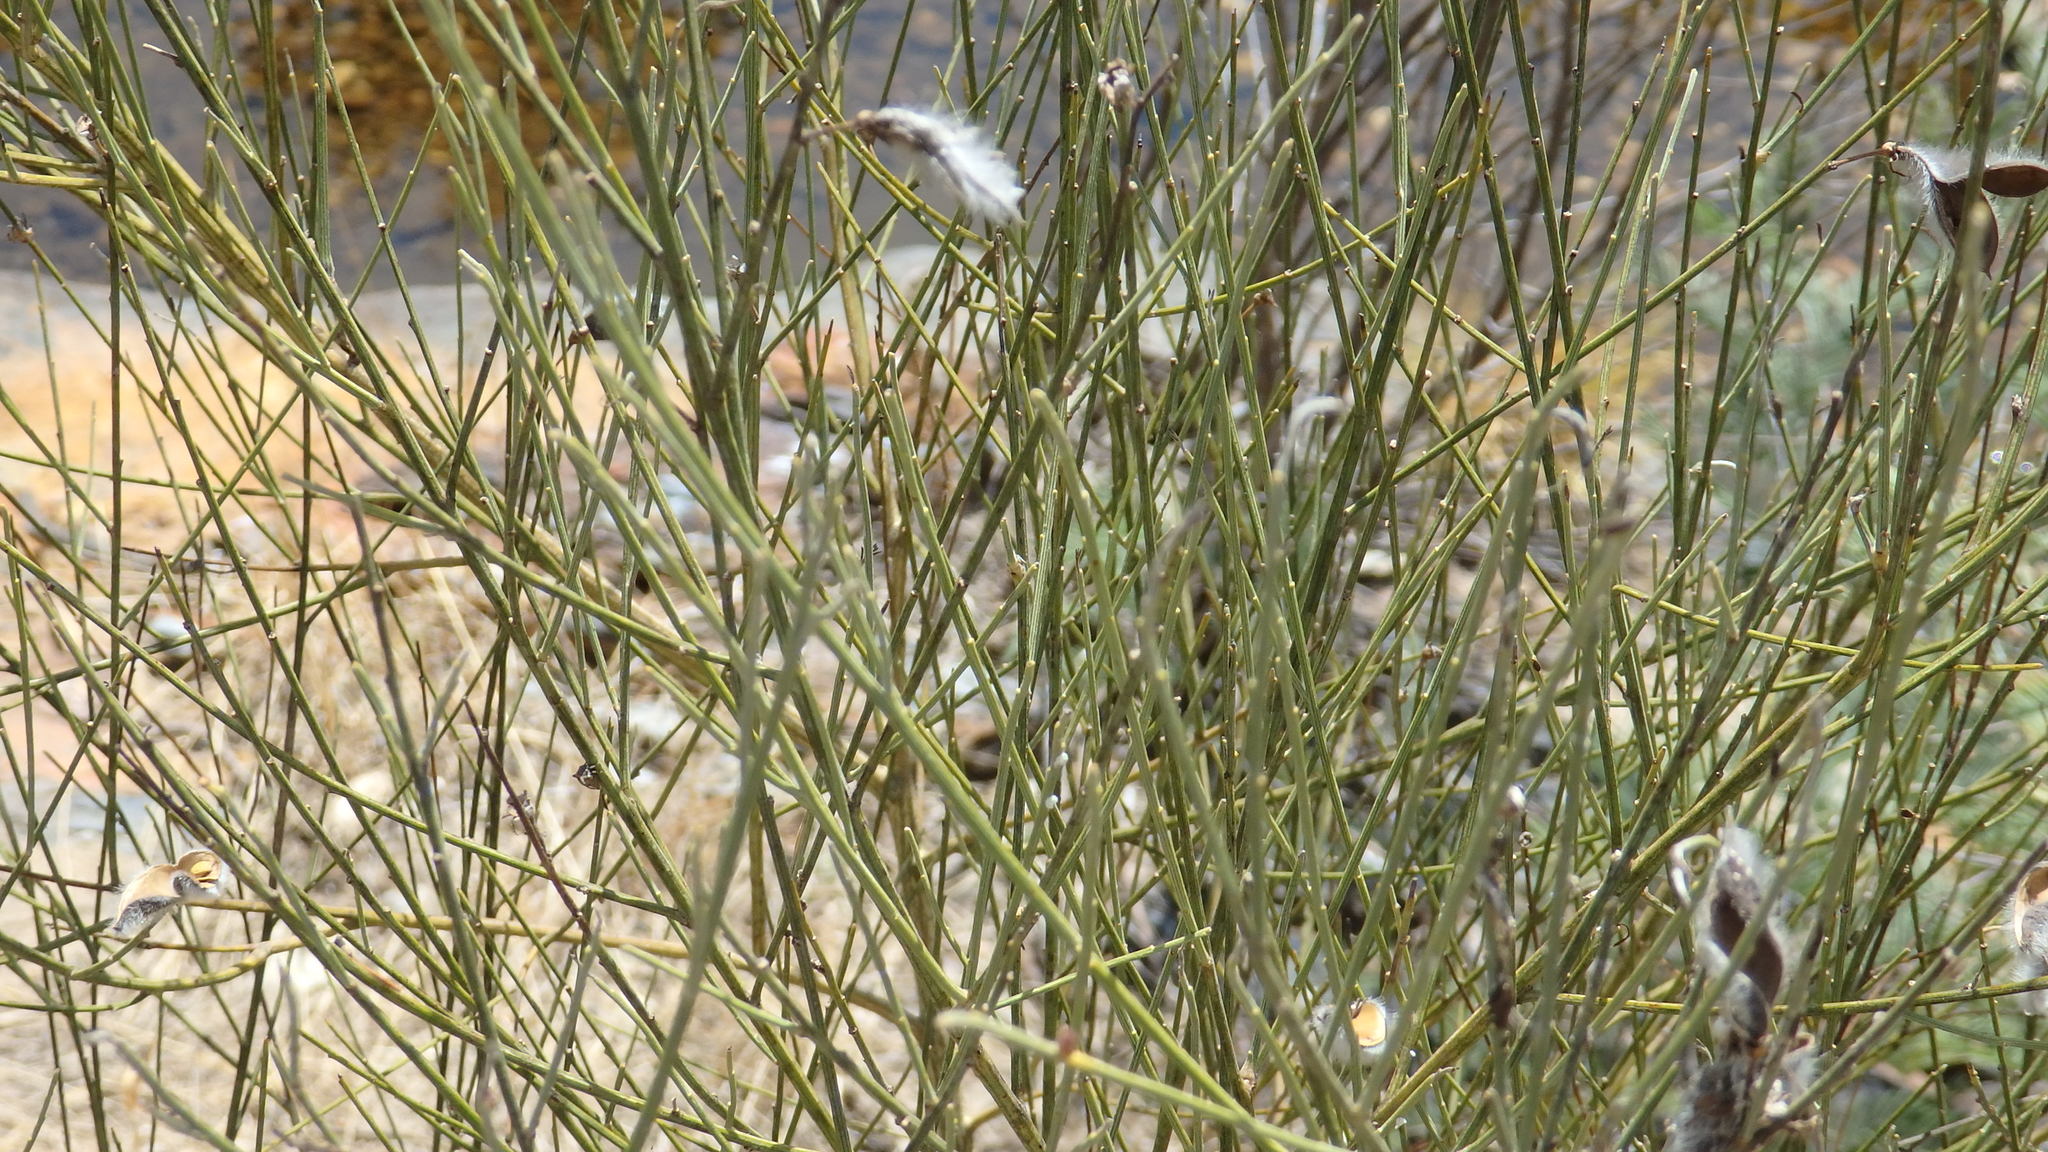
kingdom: Plantae
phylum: Tracheophyta
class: Magnoliopsida
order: Fabales
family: Fabaceae
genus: Cytisus
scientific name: Cytisus striatus
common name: Hairy-fruited broom
